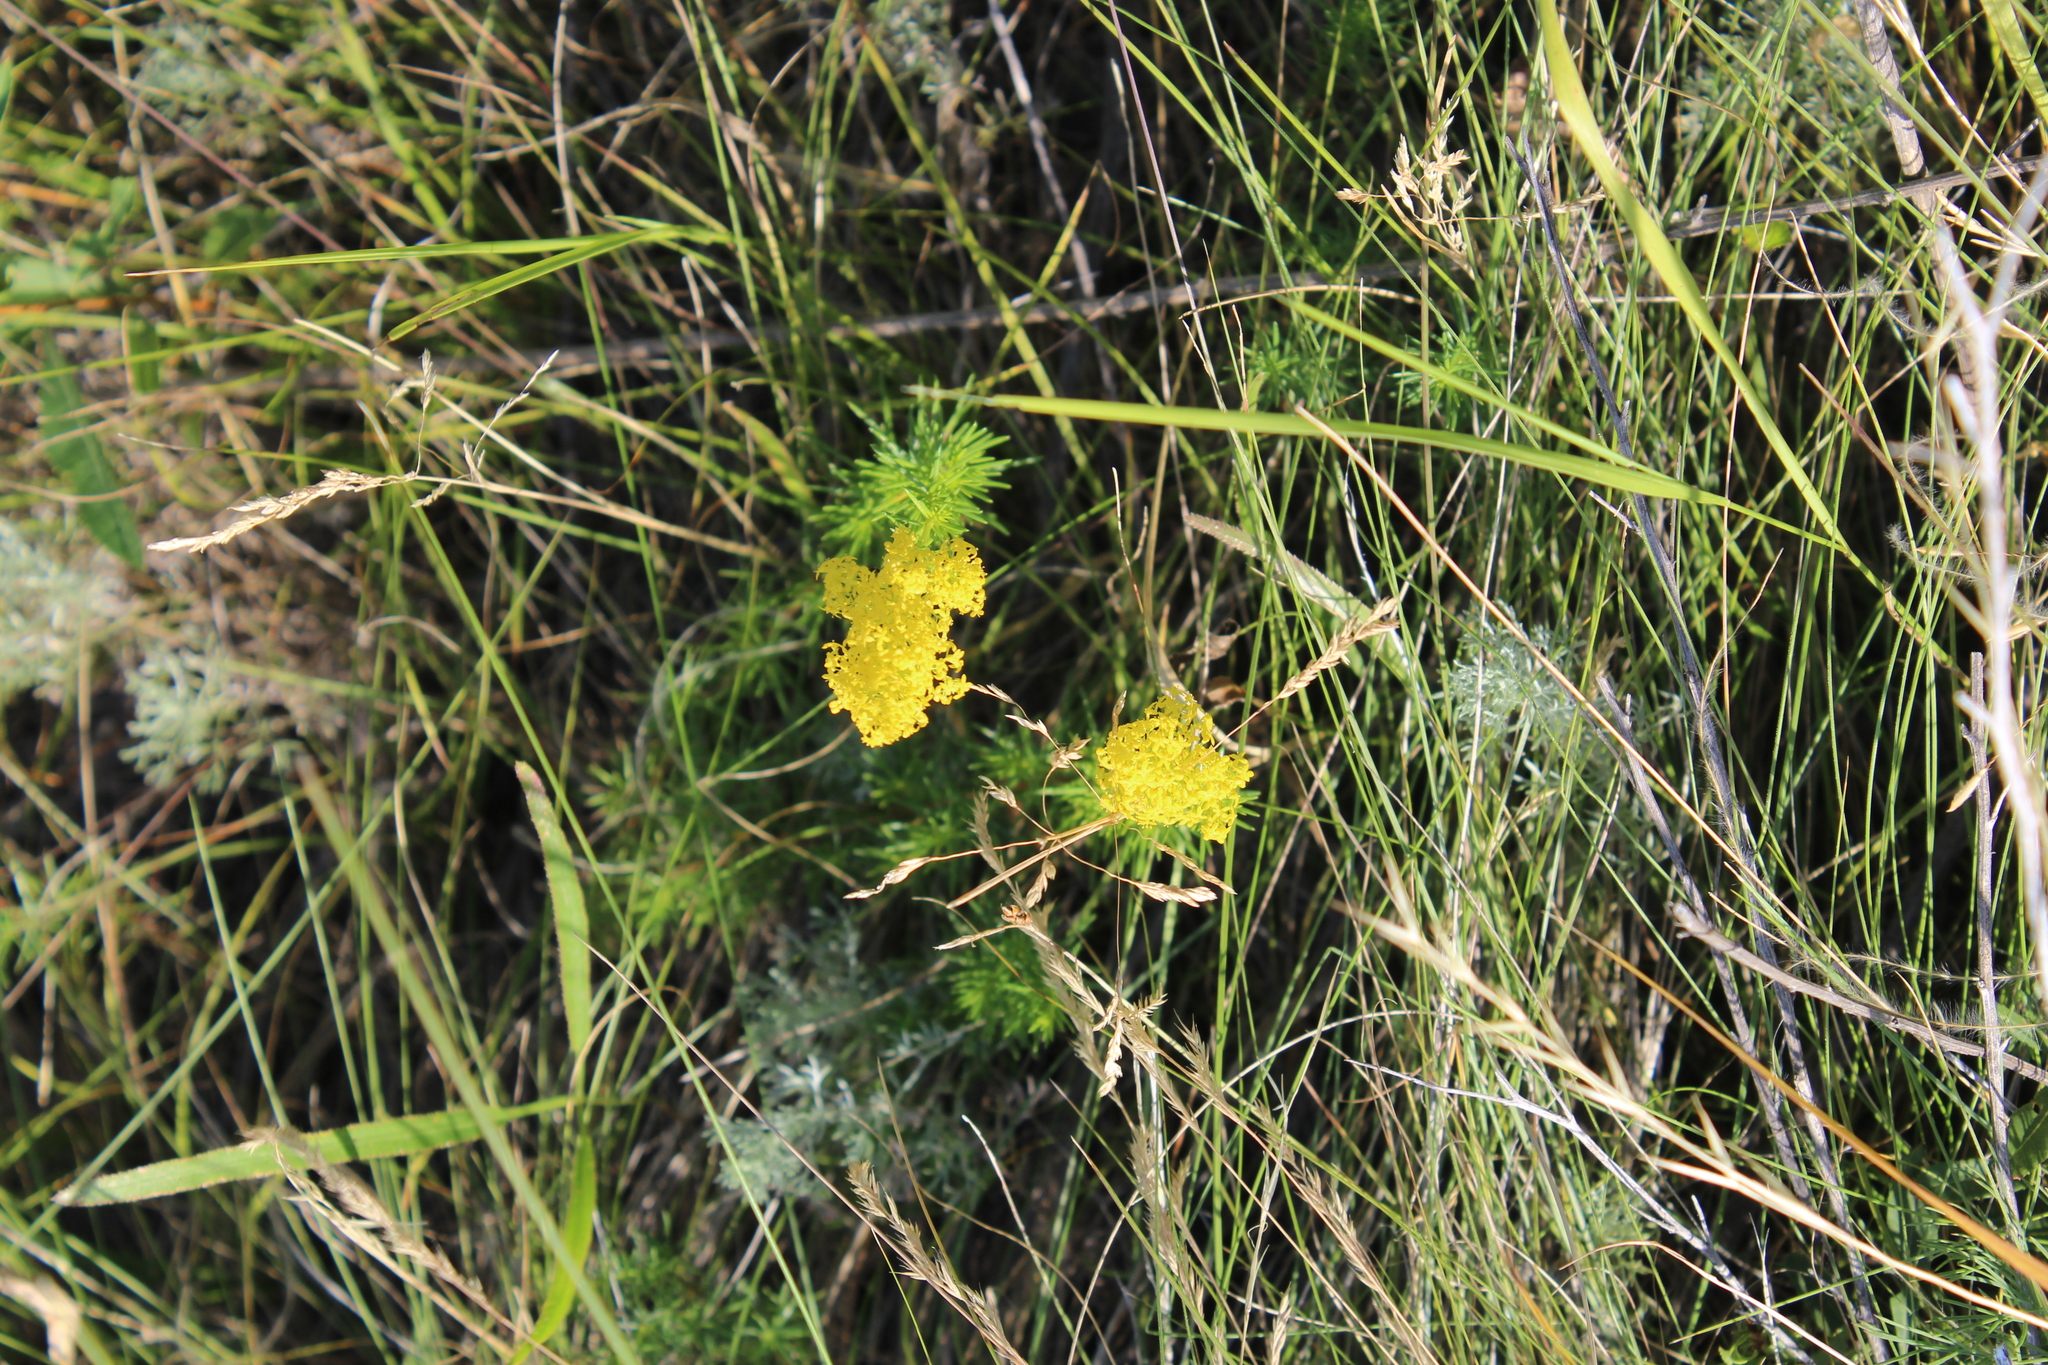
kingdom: Plantae
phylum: Tracheophyta
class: Magnoliopsida
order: Gentianales
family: Rubiaceae
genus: Galium
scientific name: Galium verum
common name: Lady's bedstraw
